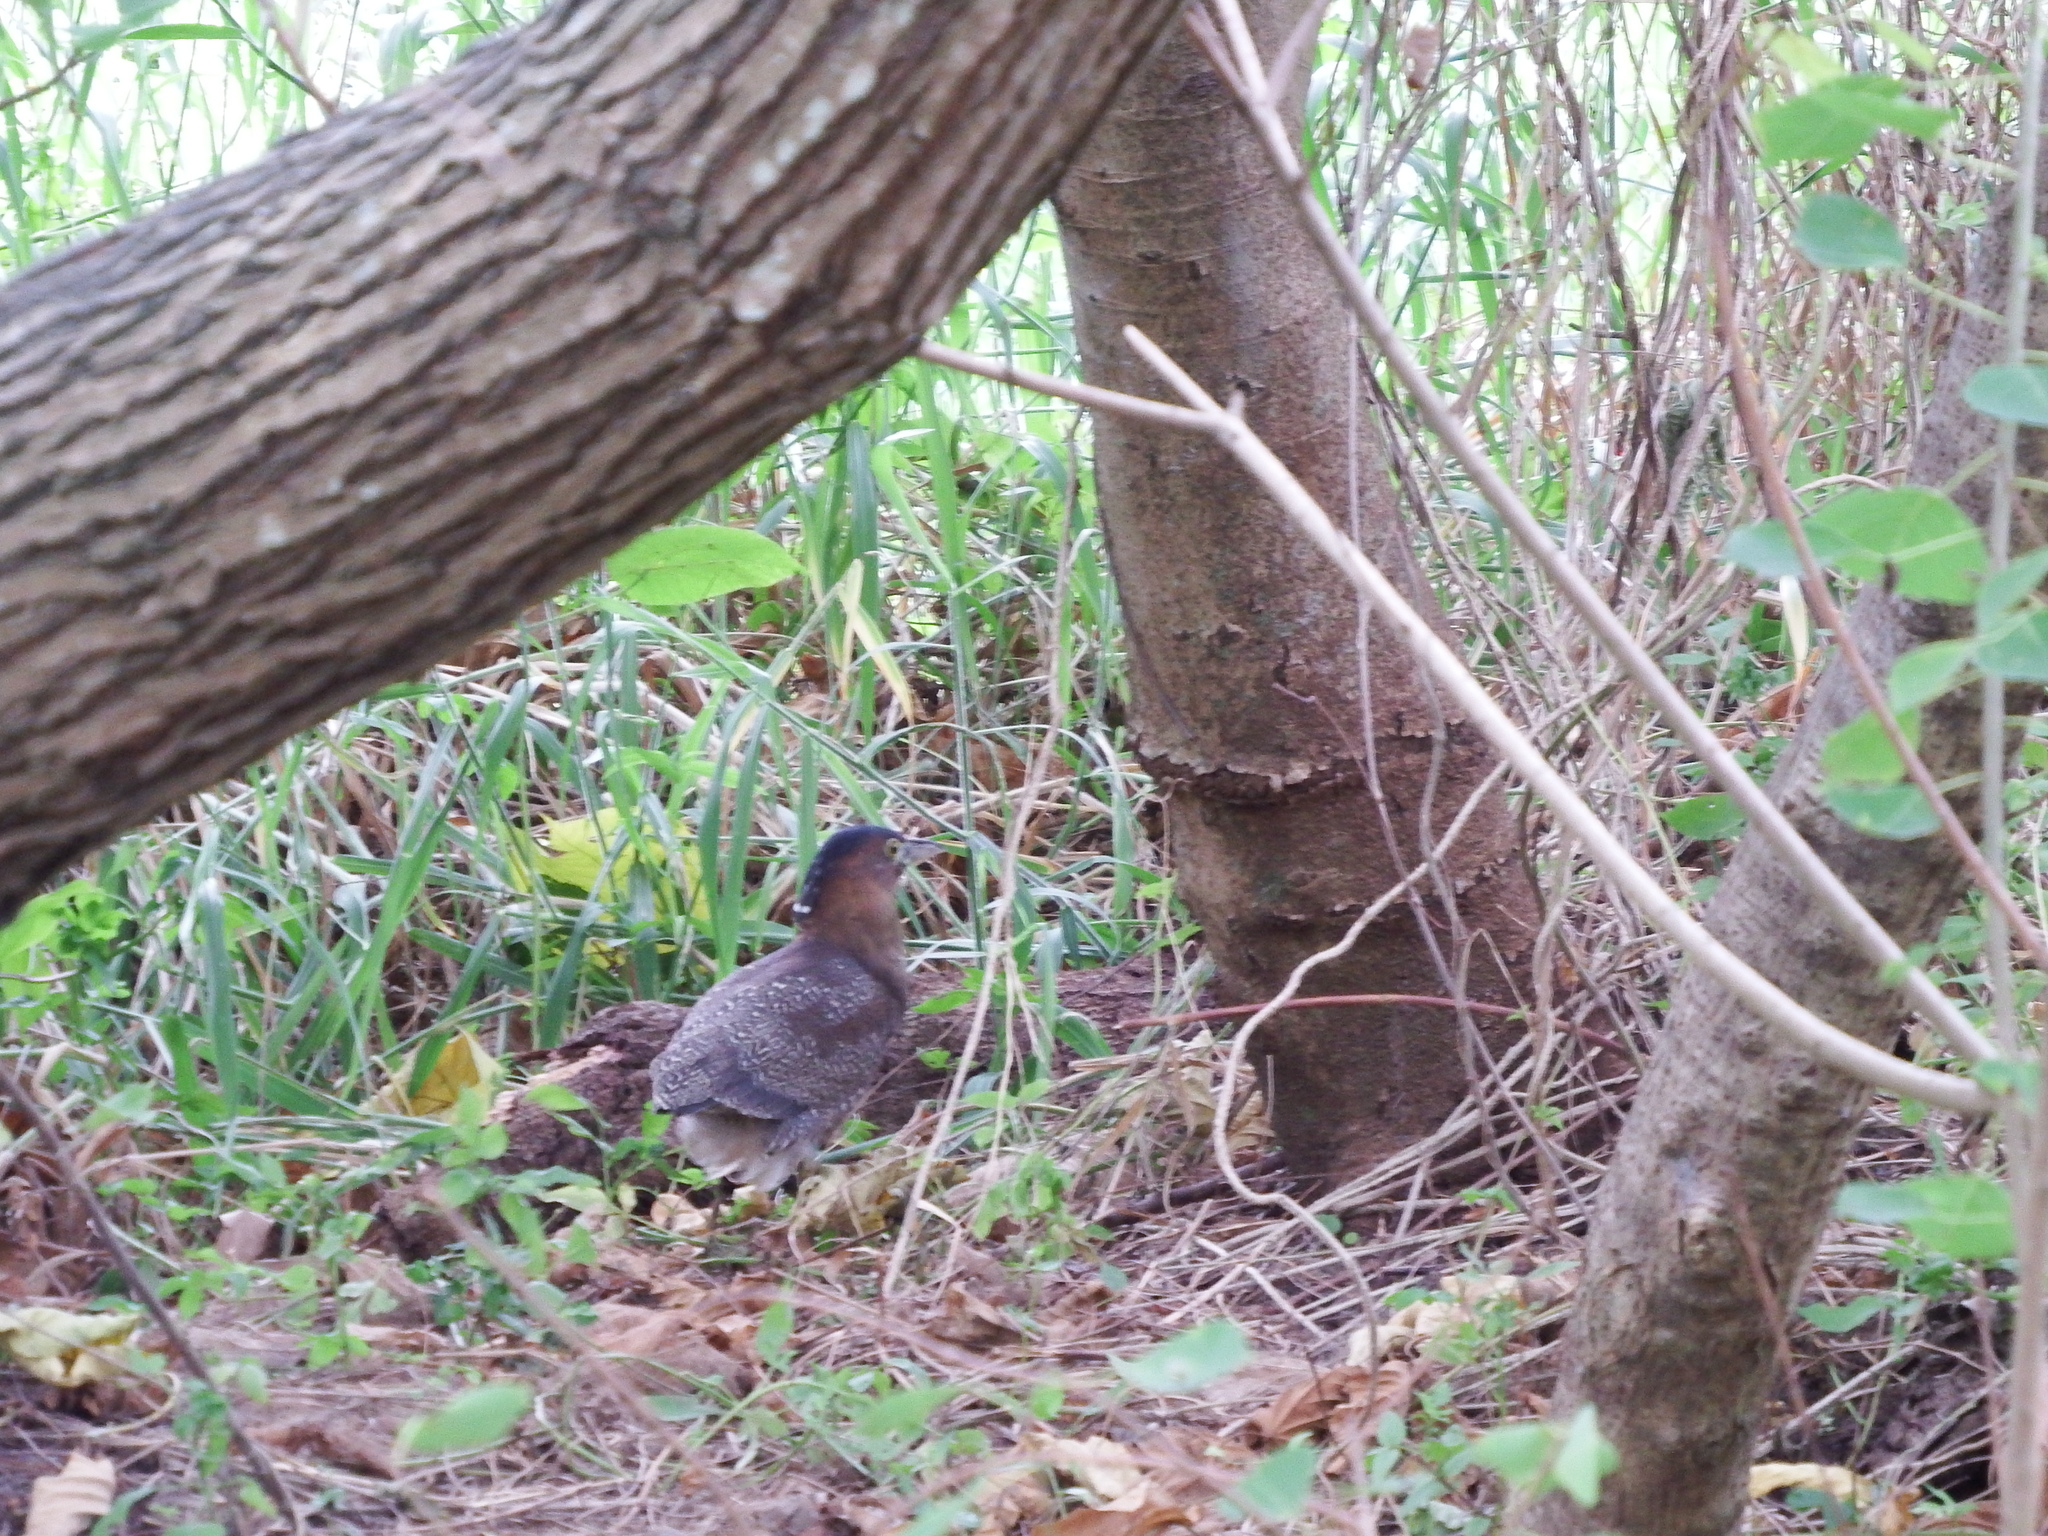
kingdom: Animalia
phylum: Chordata
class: Aves
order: Pelecaniformes
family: Ardeidae
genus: Gorsachius
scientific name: Gorsachius melanolophus
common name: Malayan night heron
